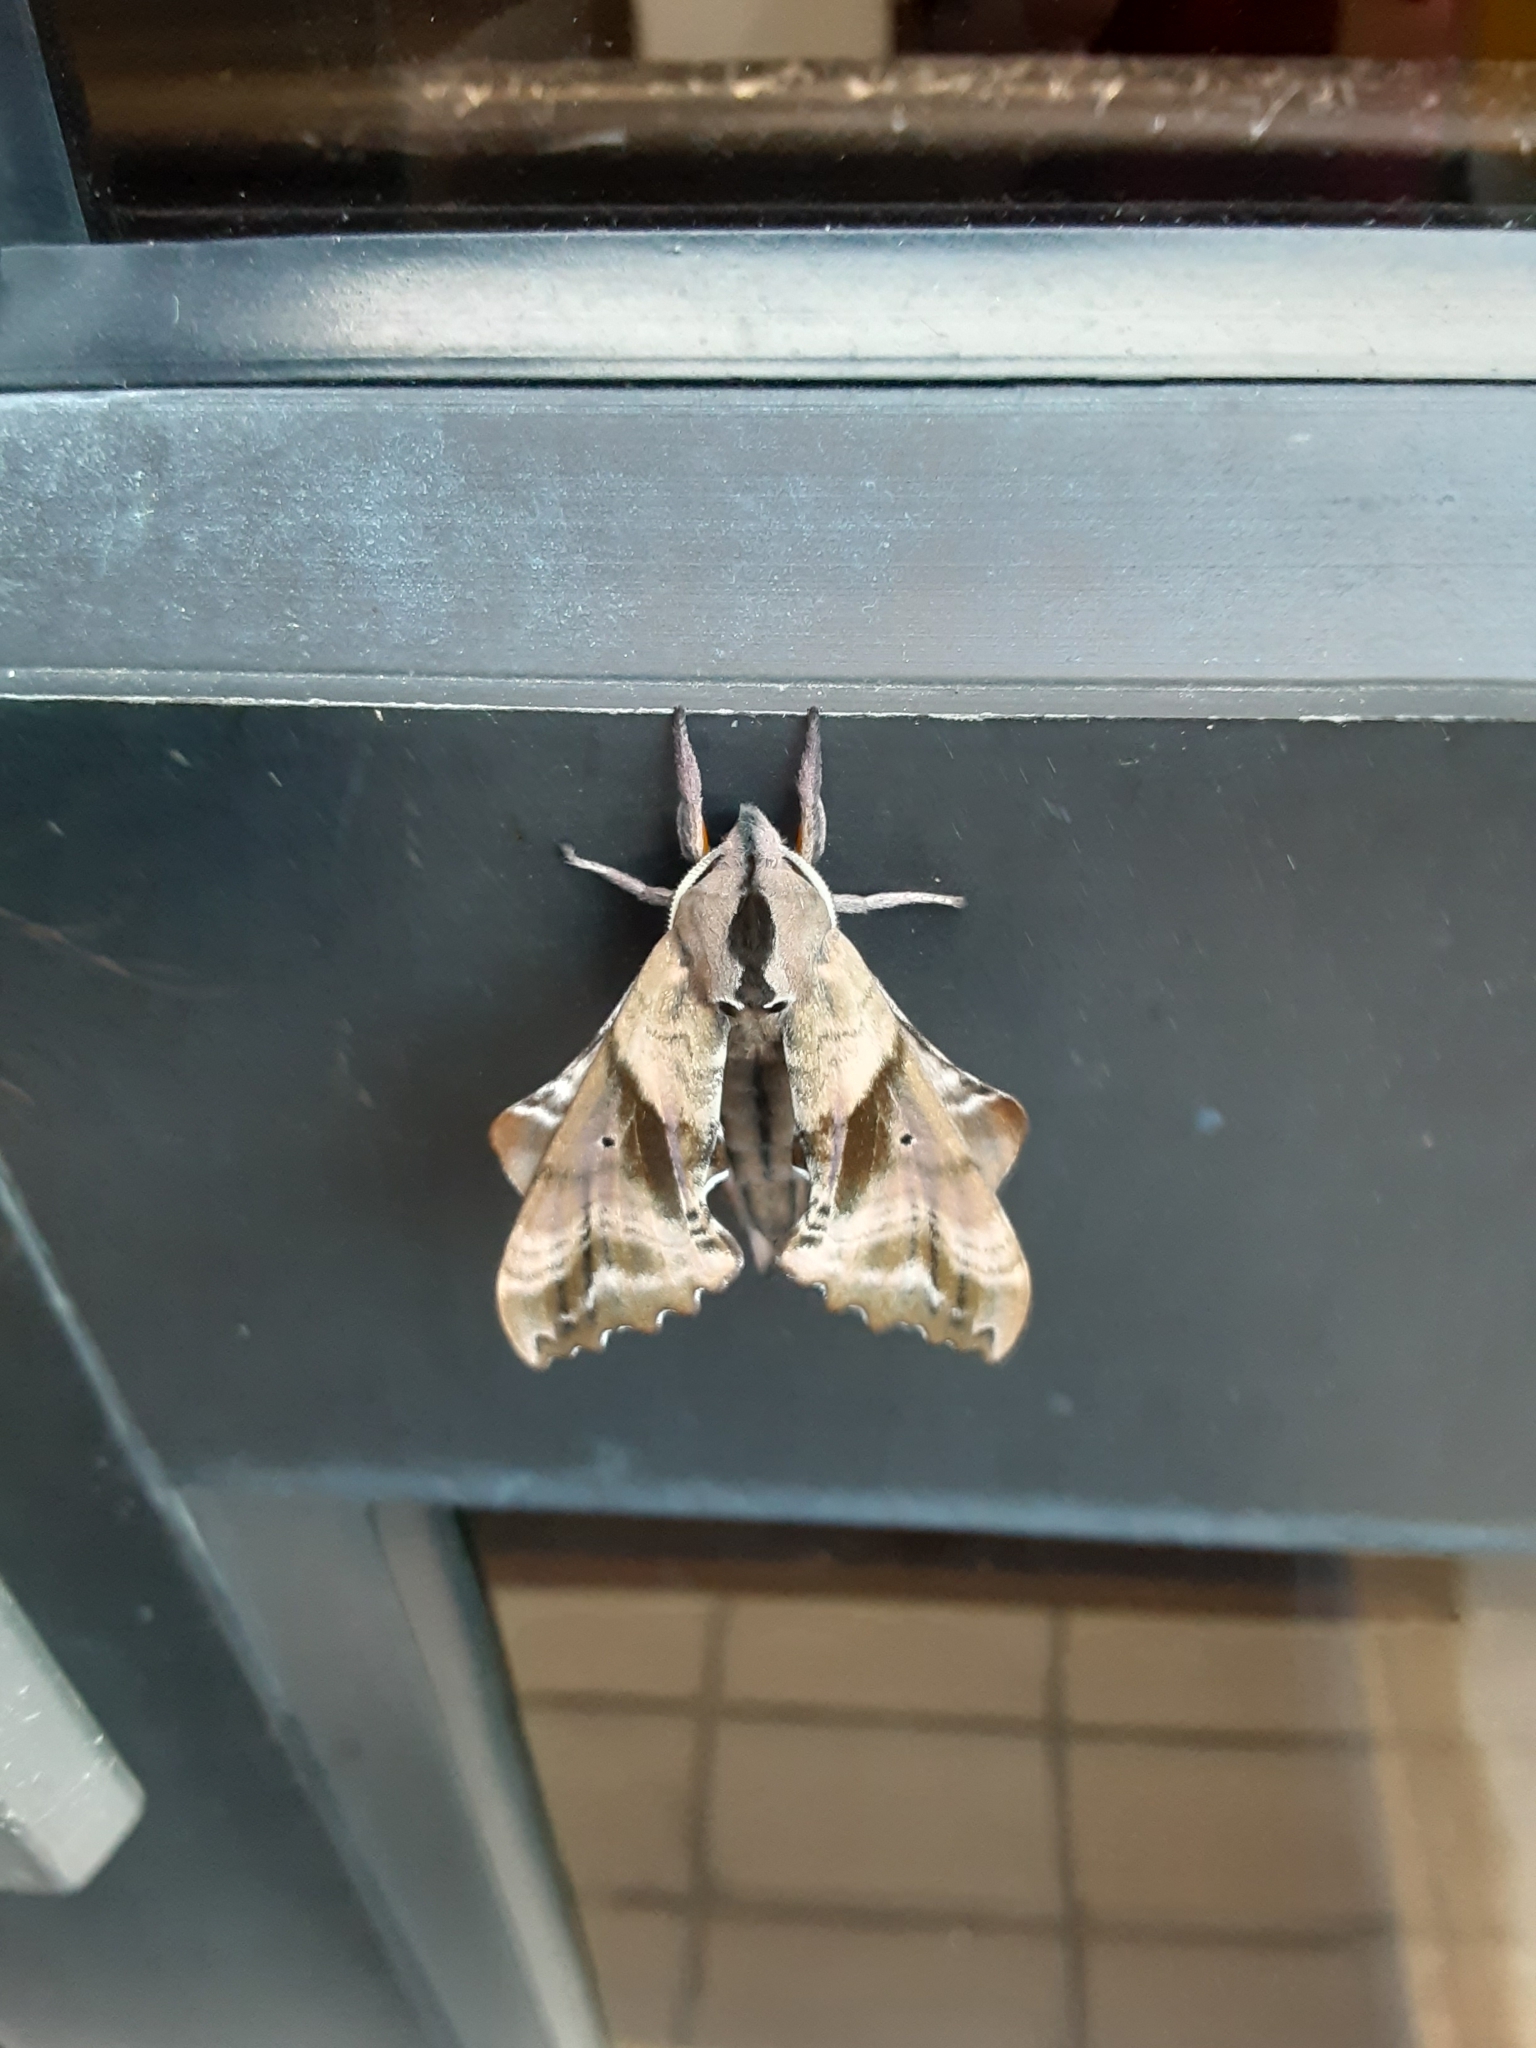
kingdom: Animalia
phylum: Arthropoda
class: Insecta
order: Lepidoptera
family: Sphingidae
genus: Paonias
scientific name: Paonias excaecata
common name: Blind-eyed sphinx
